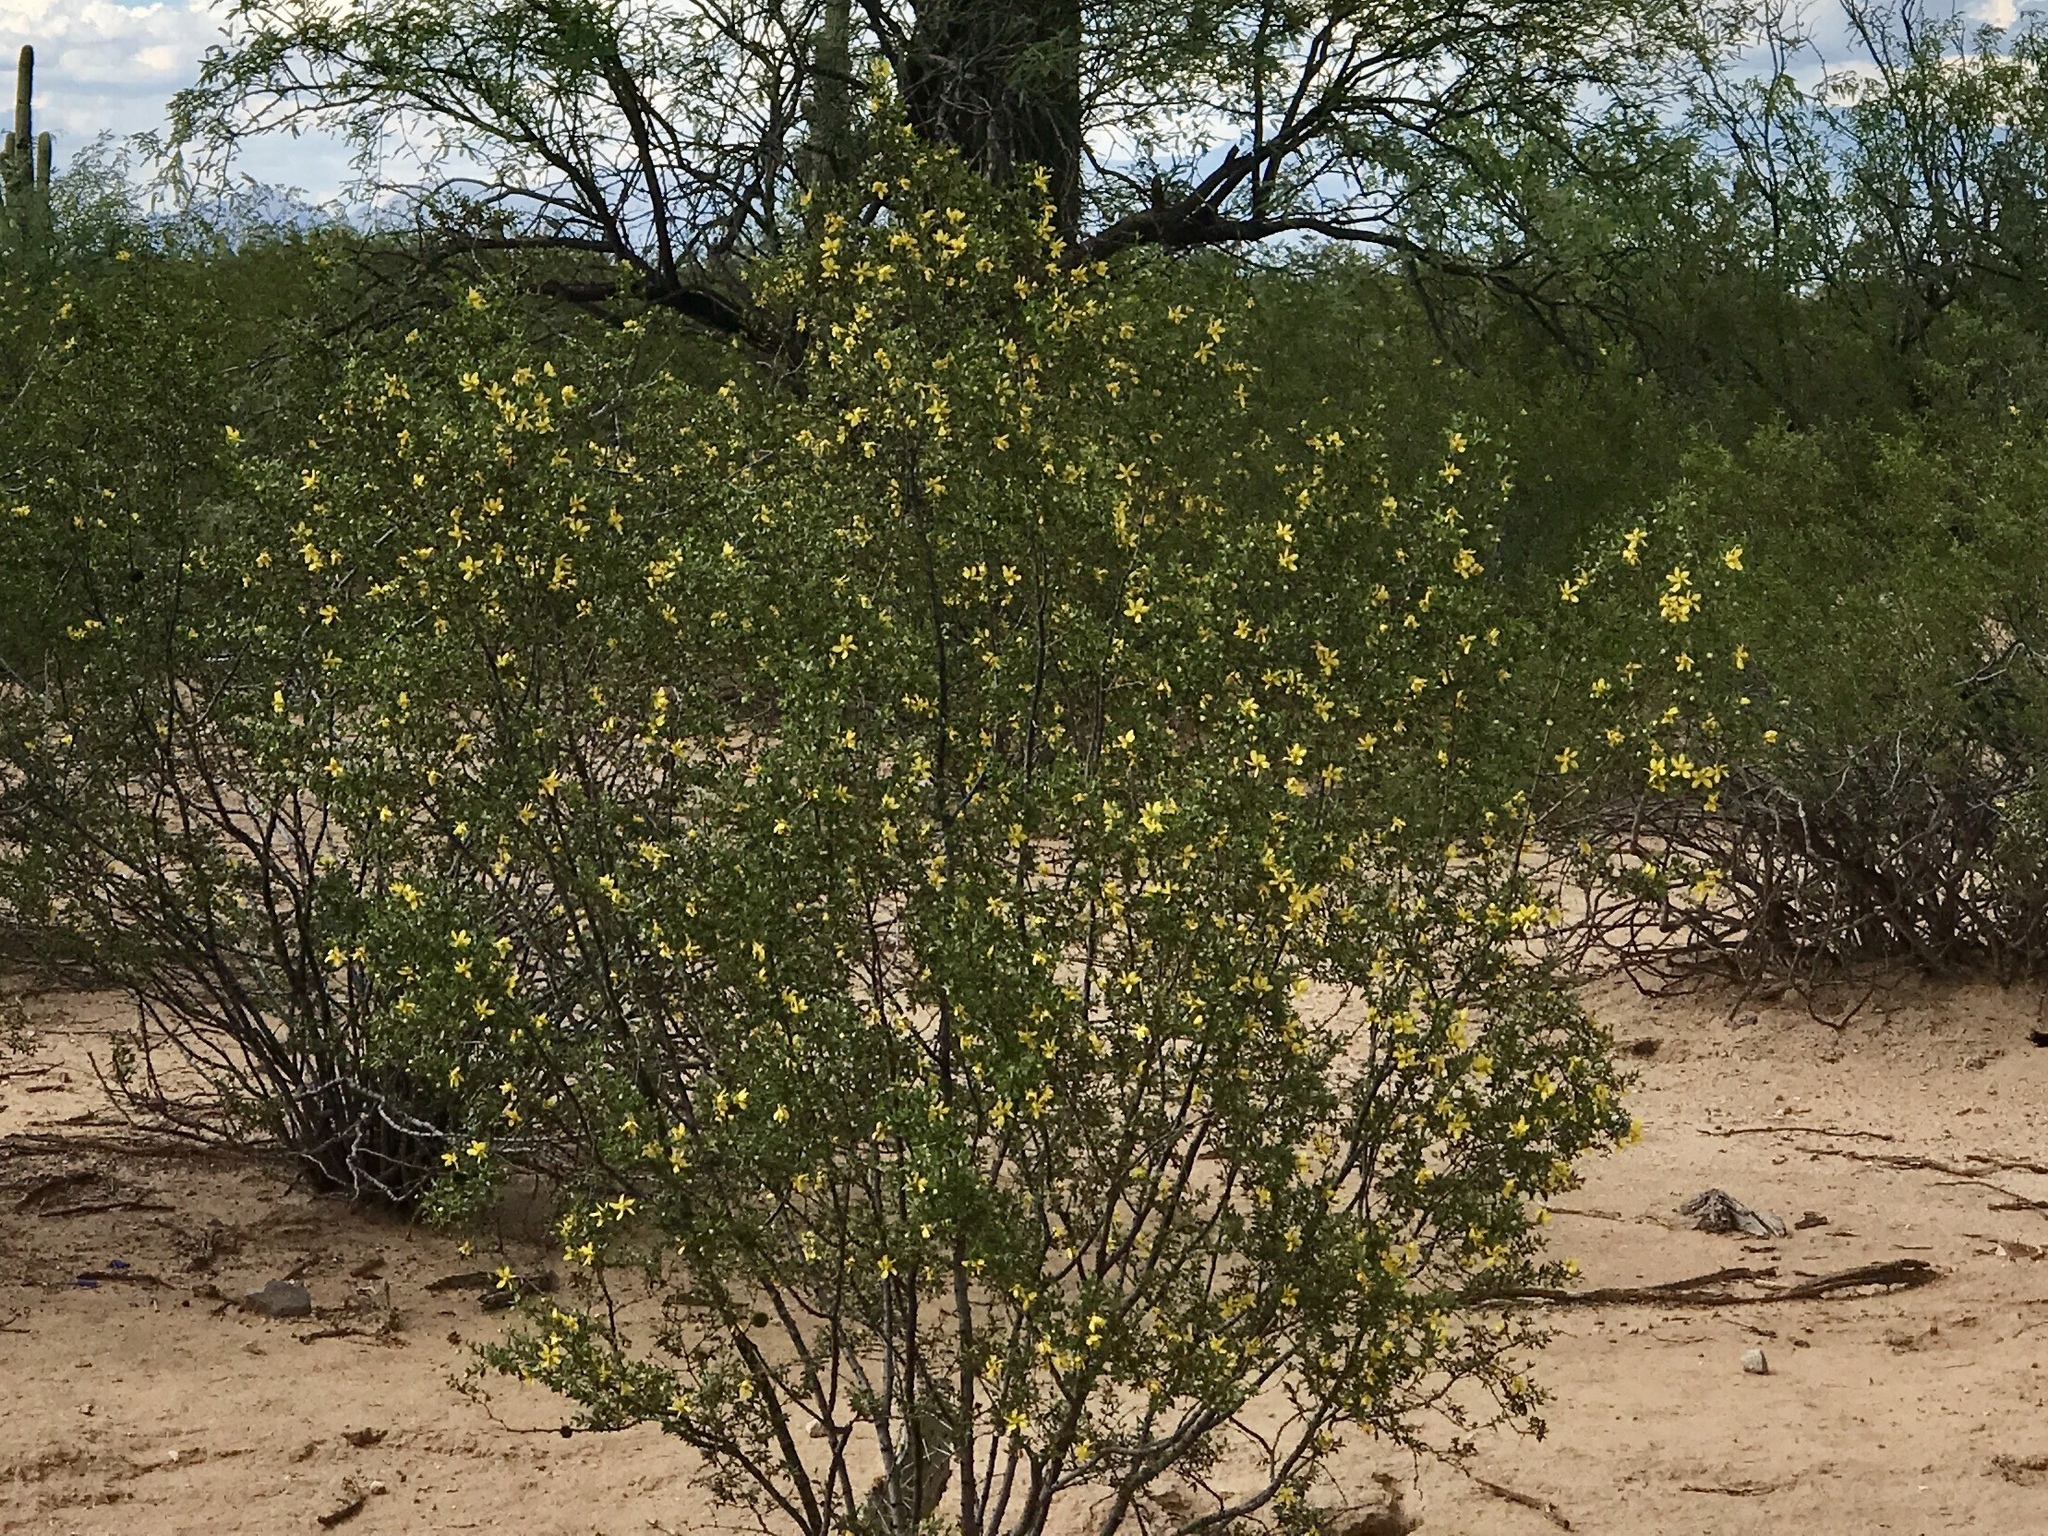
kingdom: Plantae
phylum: Tracheophyta
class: Magnoliopsida
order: Zygophyllales
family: Zygophyllaceae
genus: Larrea
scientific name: Larrea tridentata
